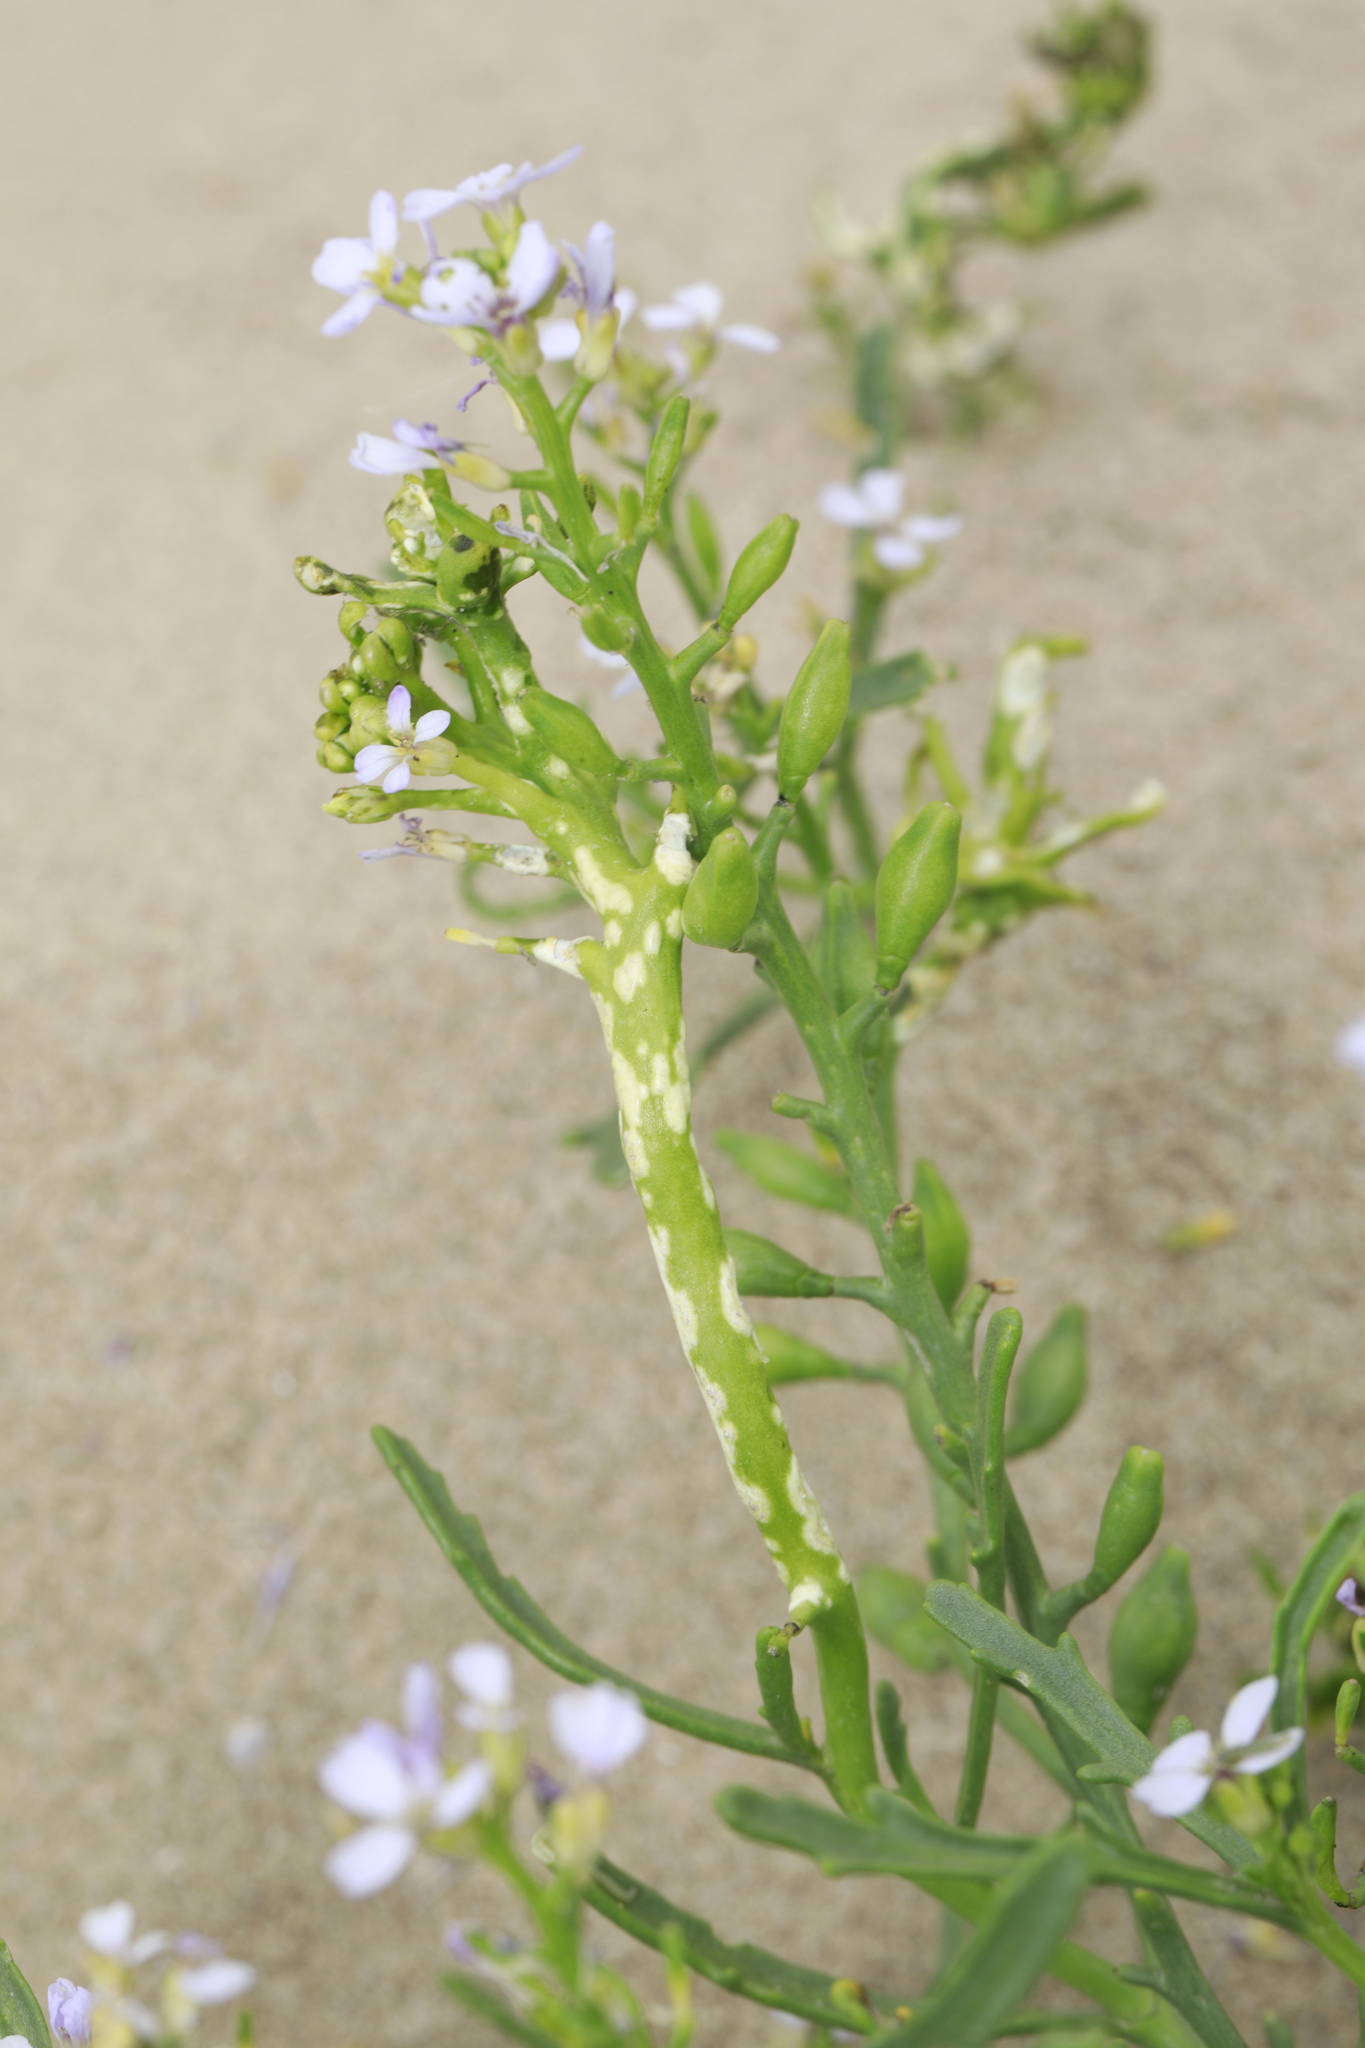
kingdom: Chromista
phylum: Oomycota
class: Peronosporea
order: Albuginales
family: Albuginaceae
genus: Albugo
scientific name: Albugo candida
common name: Crucifer white blister
